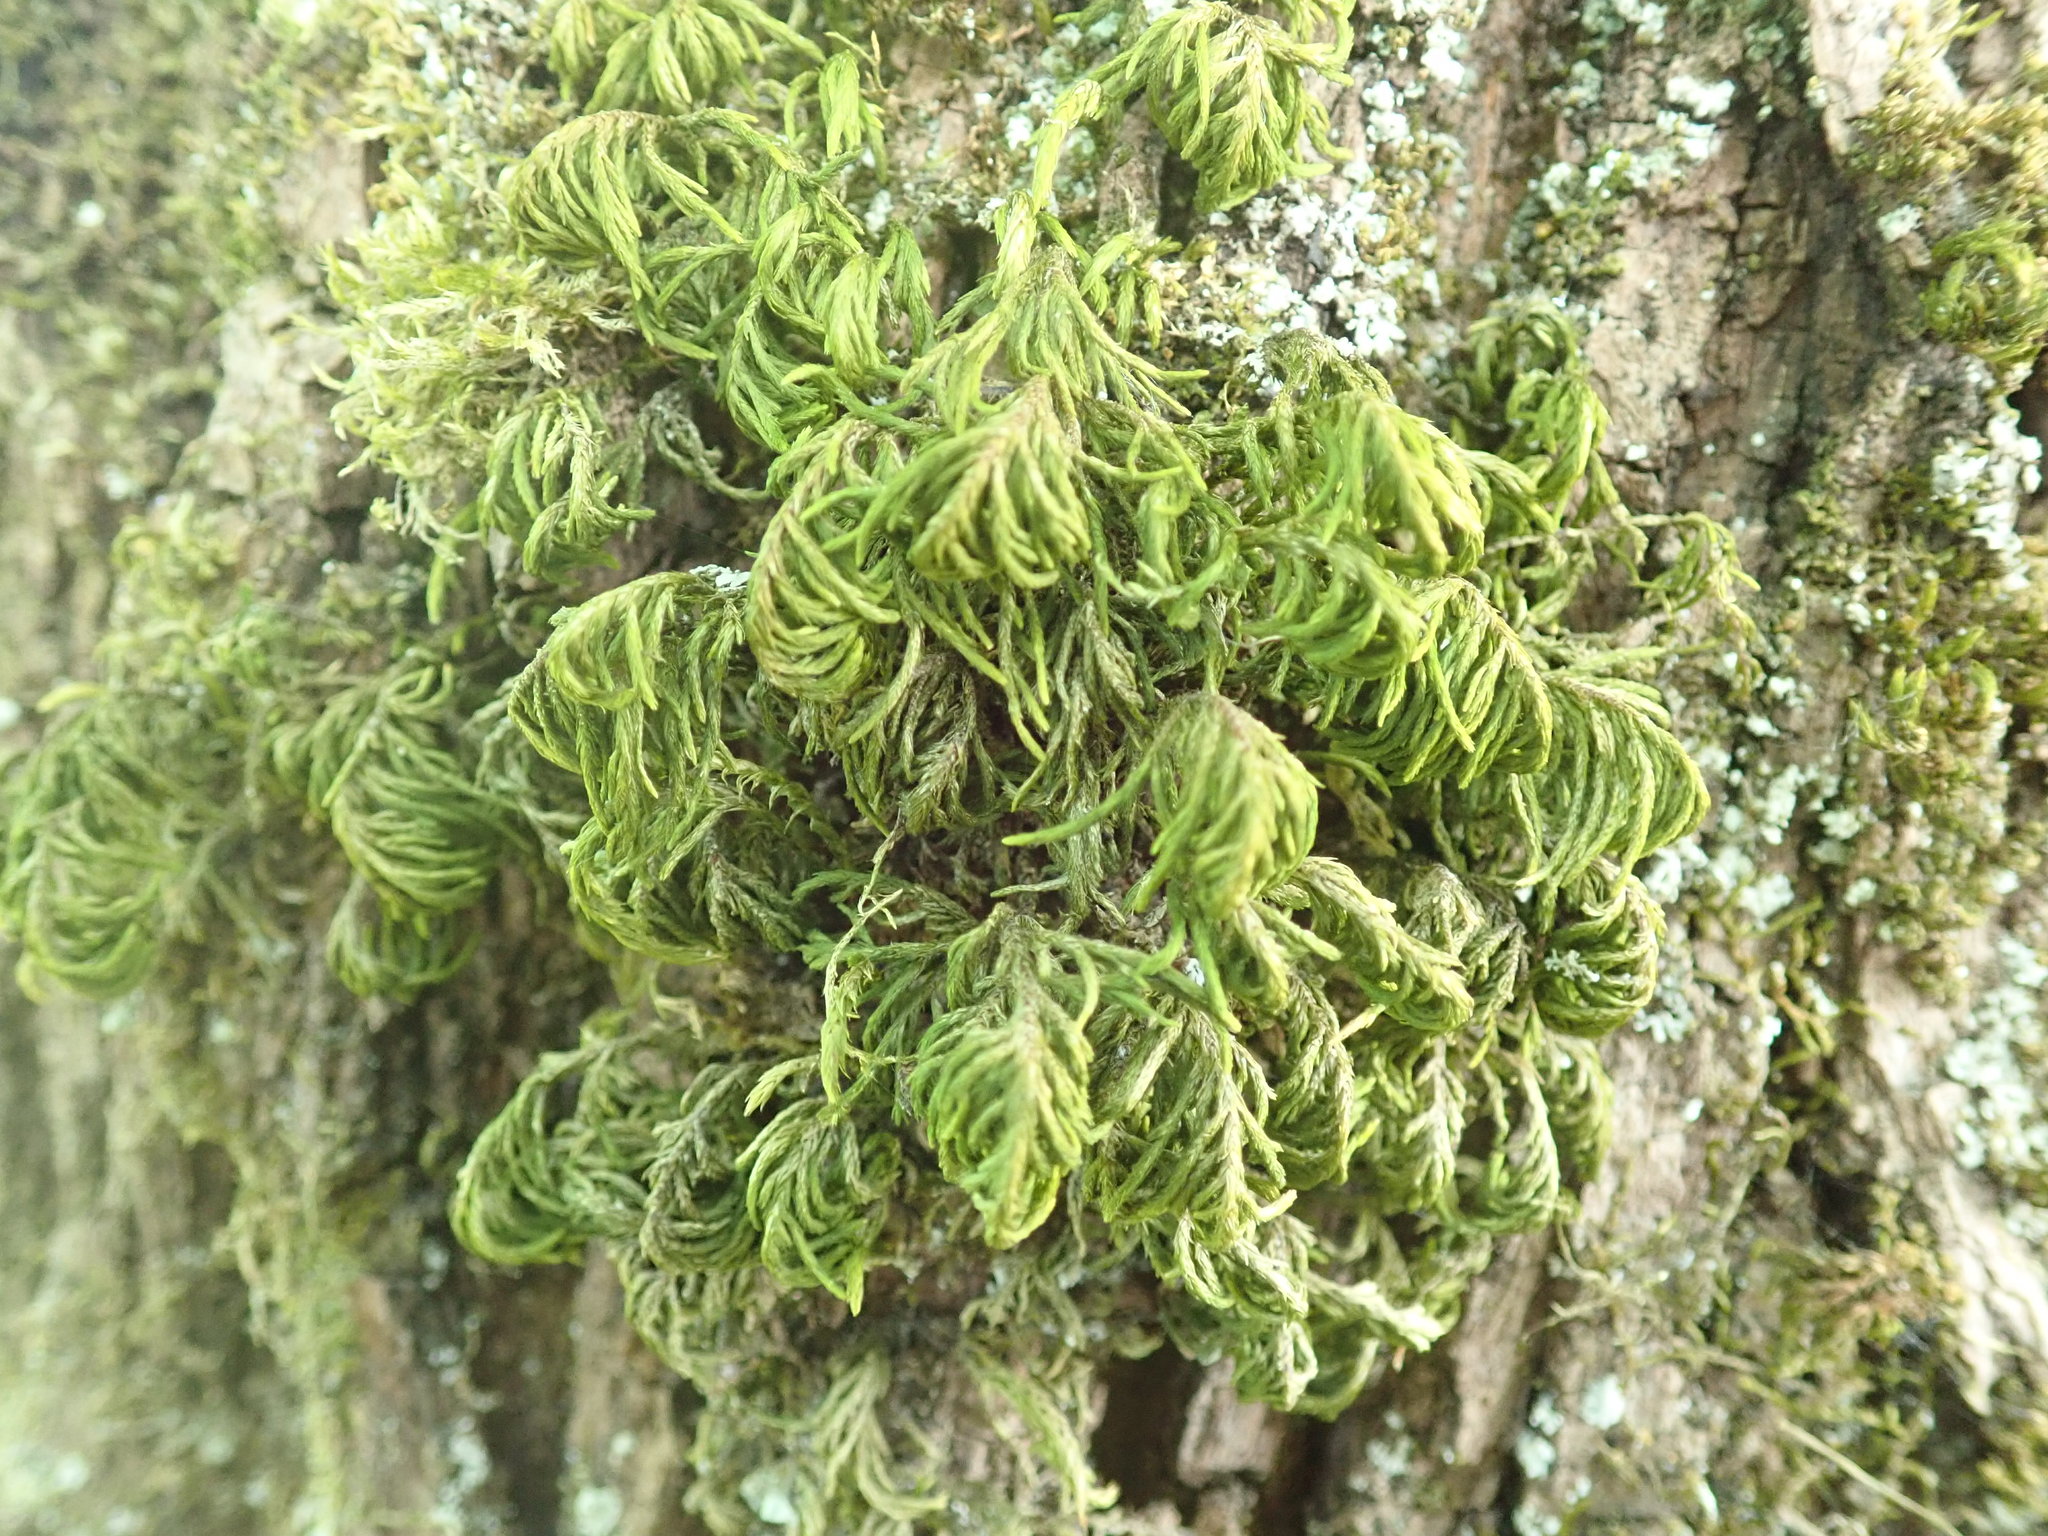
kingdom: Plantae
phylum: Bryophyta
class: Bryopsida
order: Hypnales
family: Cryphaeaceae
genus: Dendroalsia
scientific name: Dendroalsia abietina
